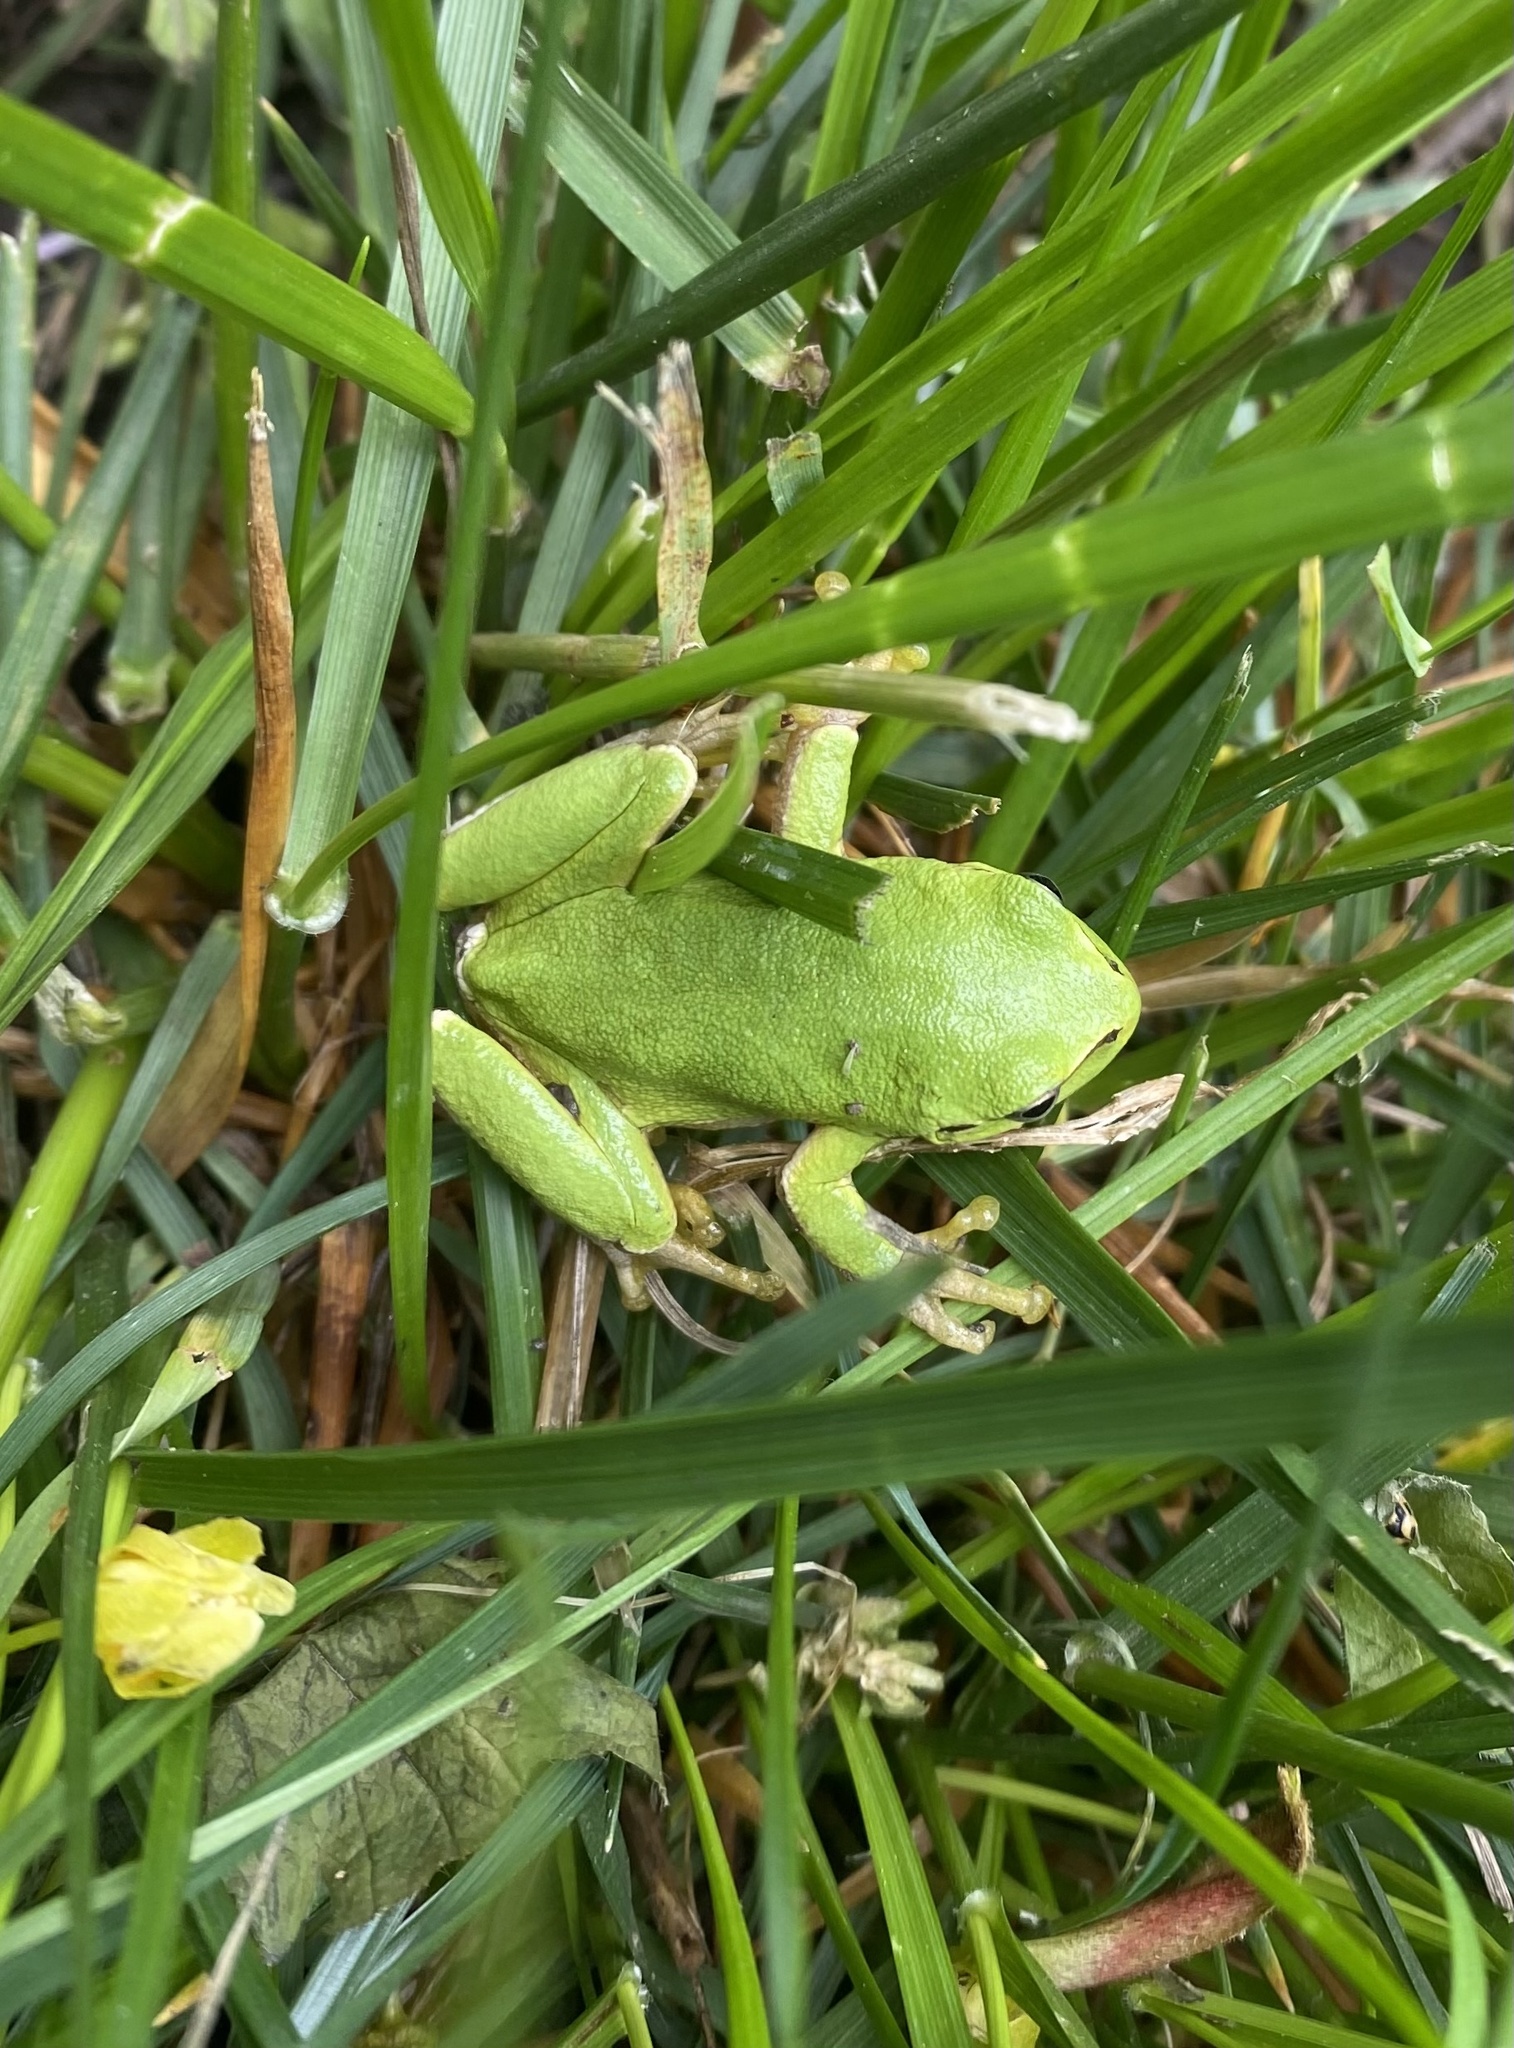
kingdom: Animalia
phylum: Chordata
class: Amphibia
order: Anura
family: Hylidae
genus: Hyla
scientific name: Hyla orientalis
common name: Caucasian treefrog
